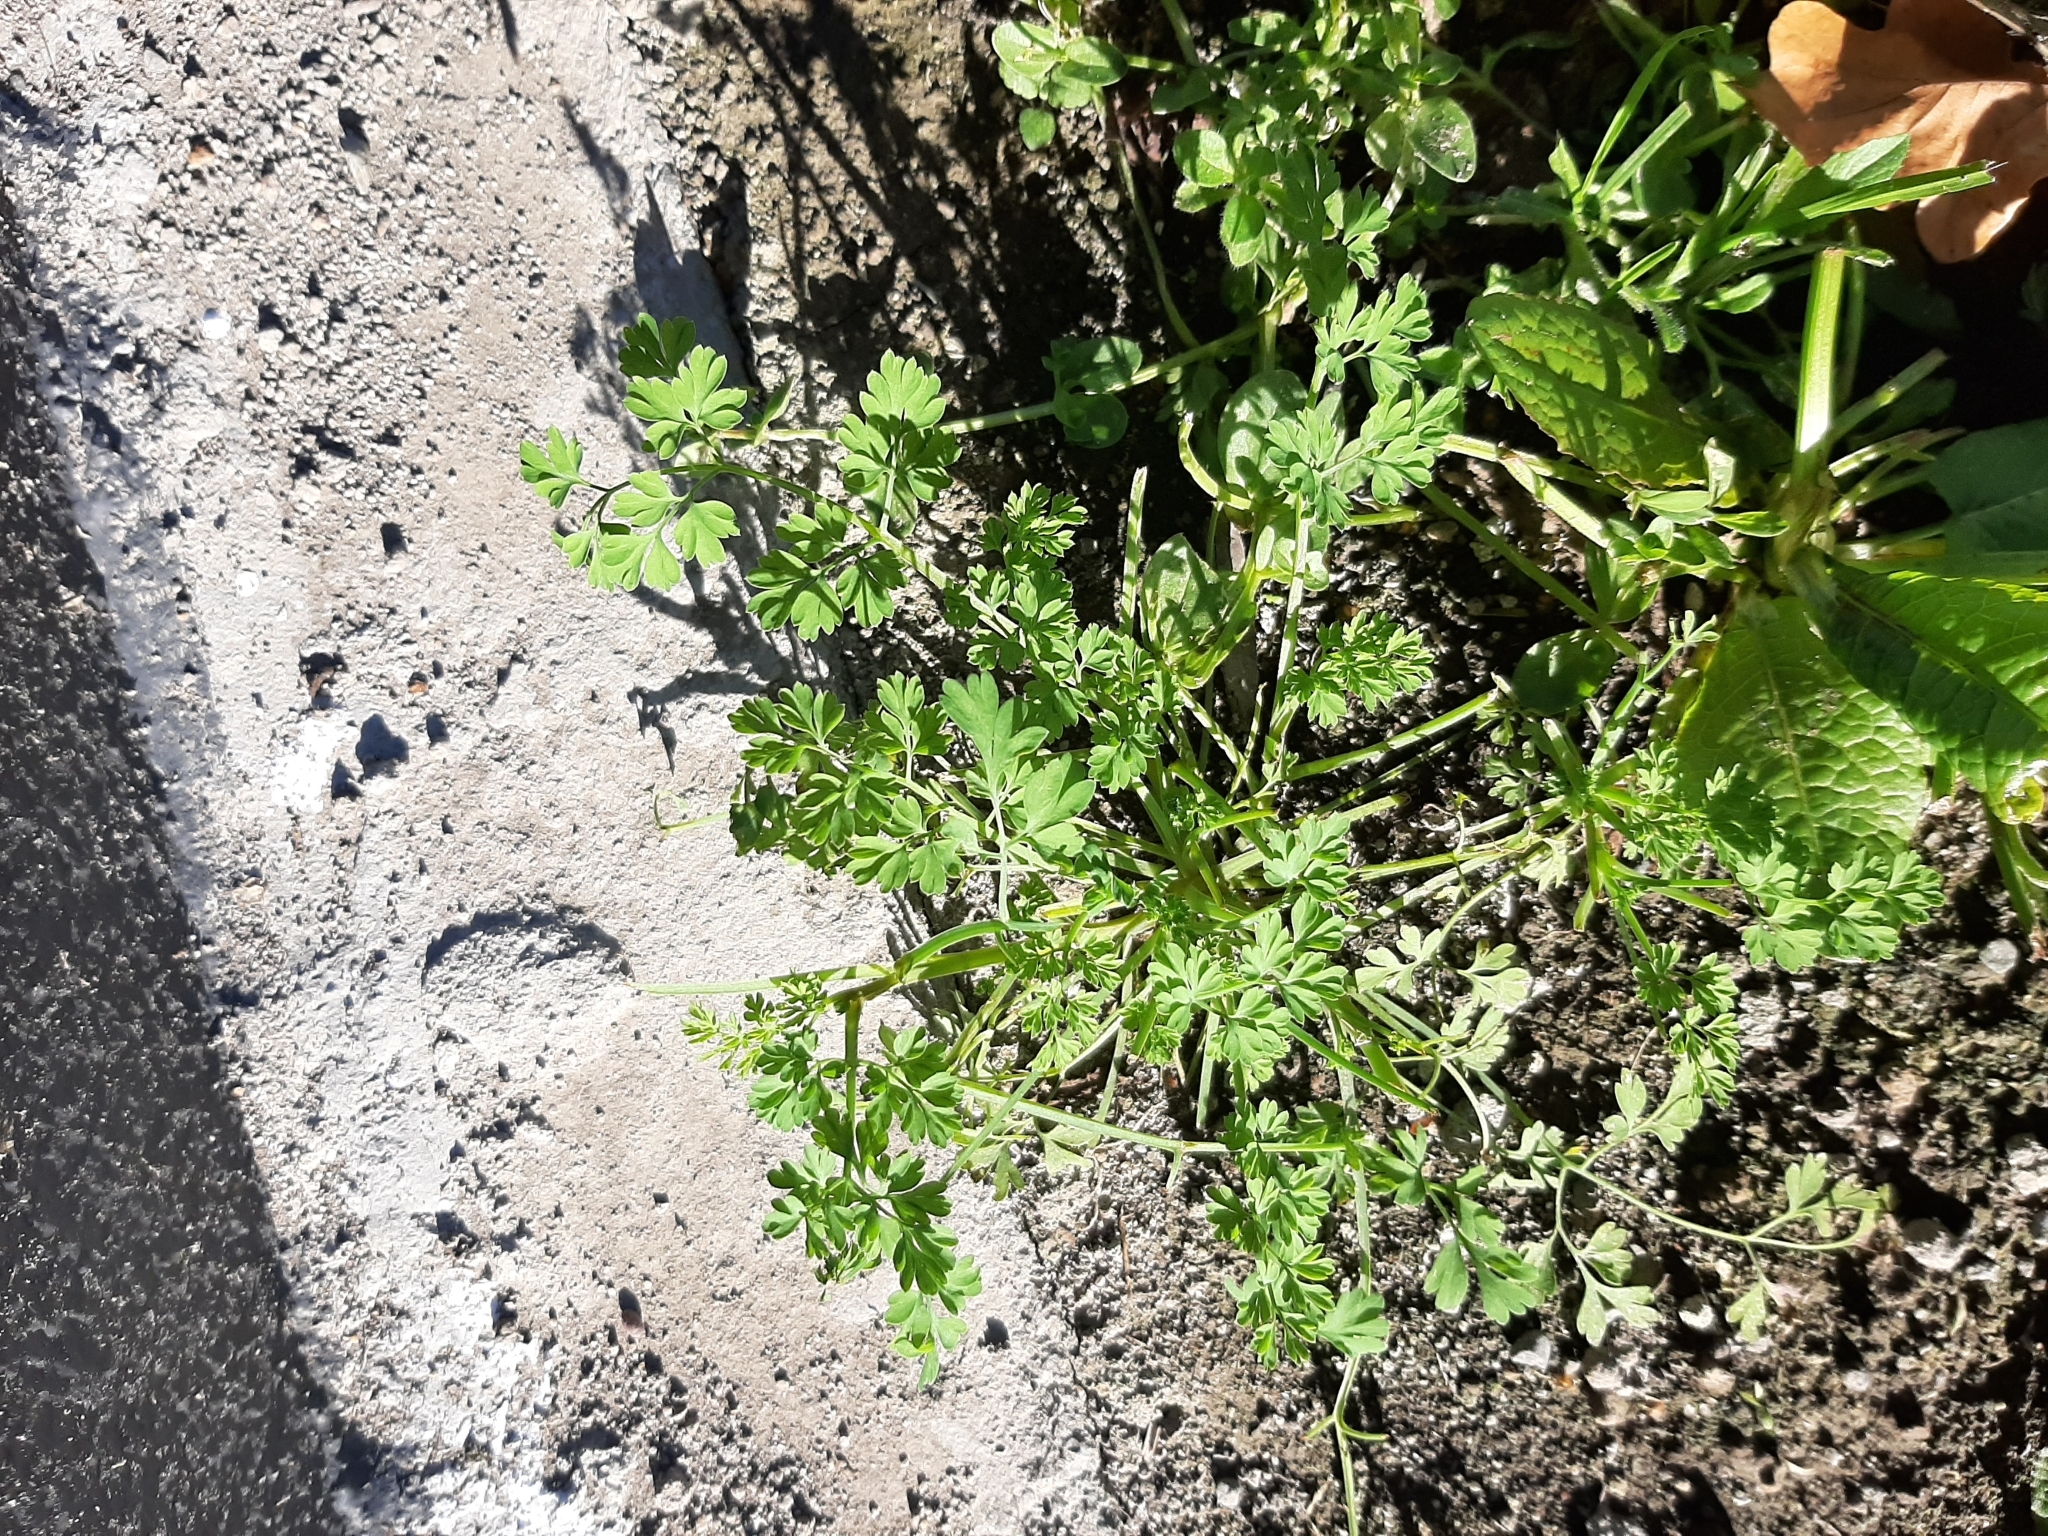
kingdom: Plantae
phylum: Tracheophyta
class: Magnoliopsida
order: Ranunculales
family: Papaveraceae
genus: Fumaria
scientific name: Fumaria muralis
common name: Common ramping-fumitory
